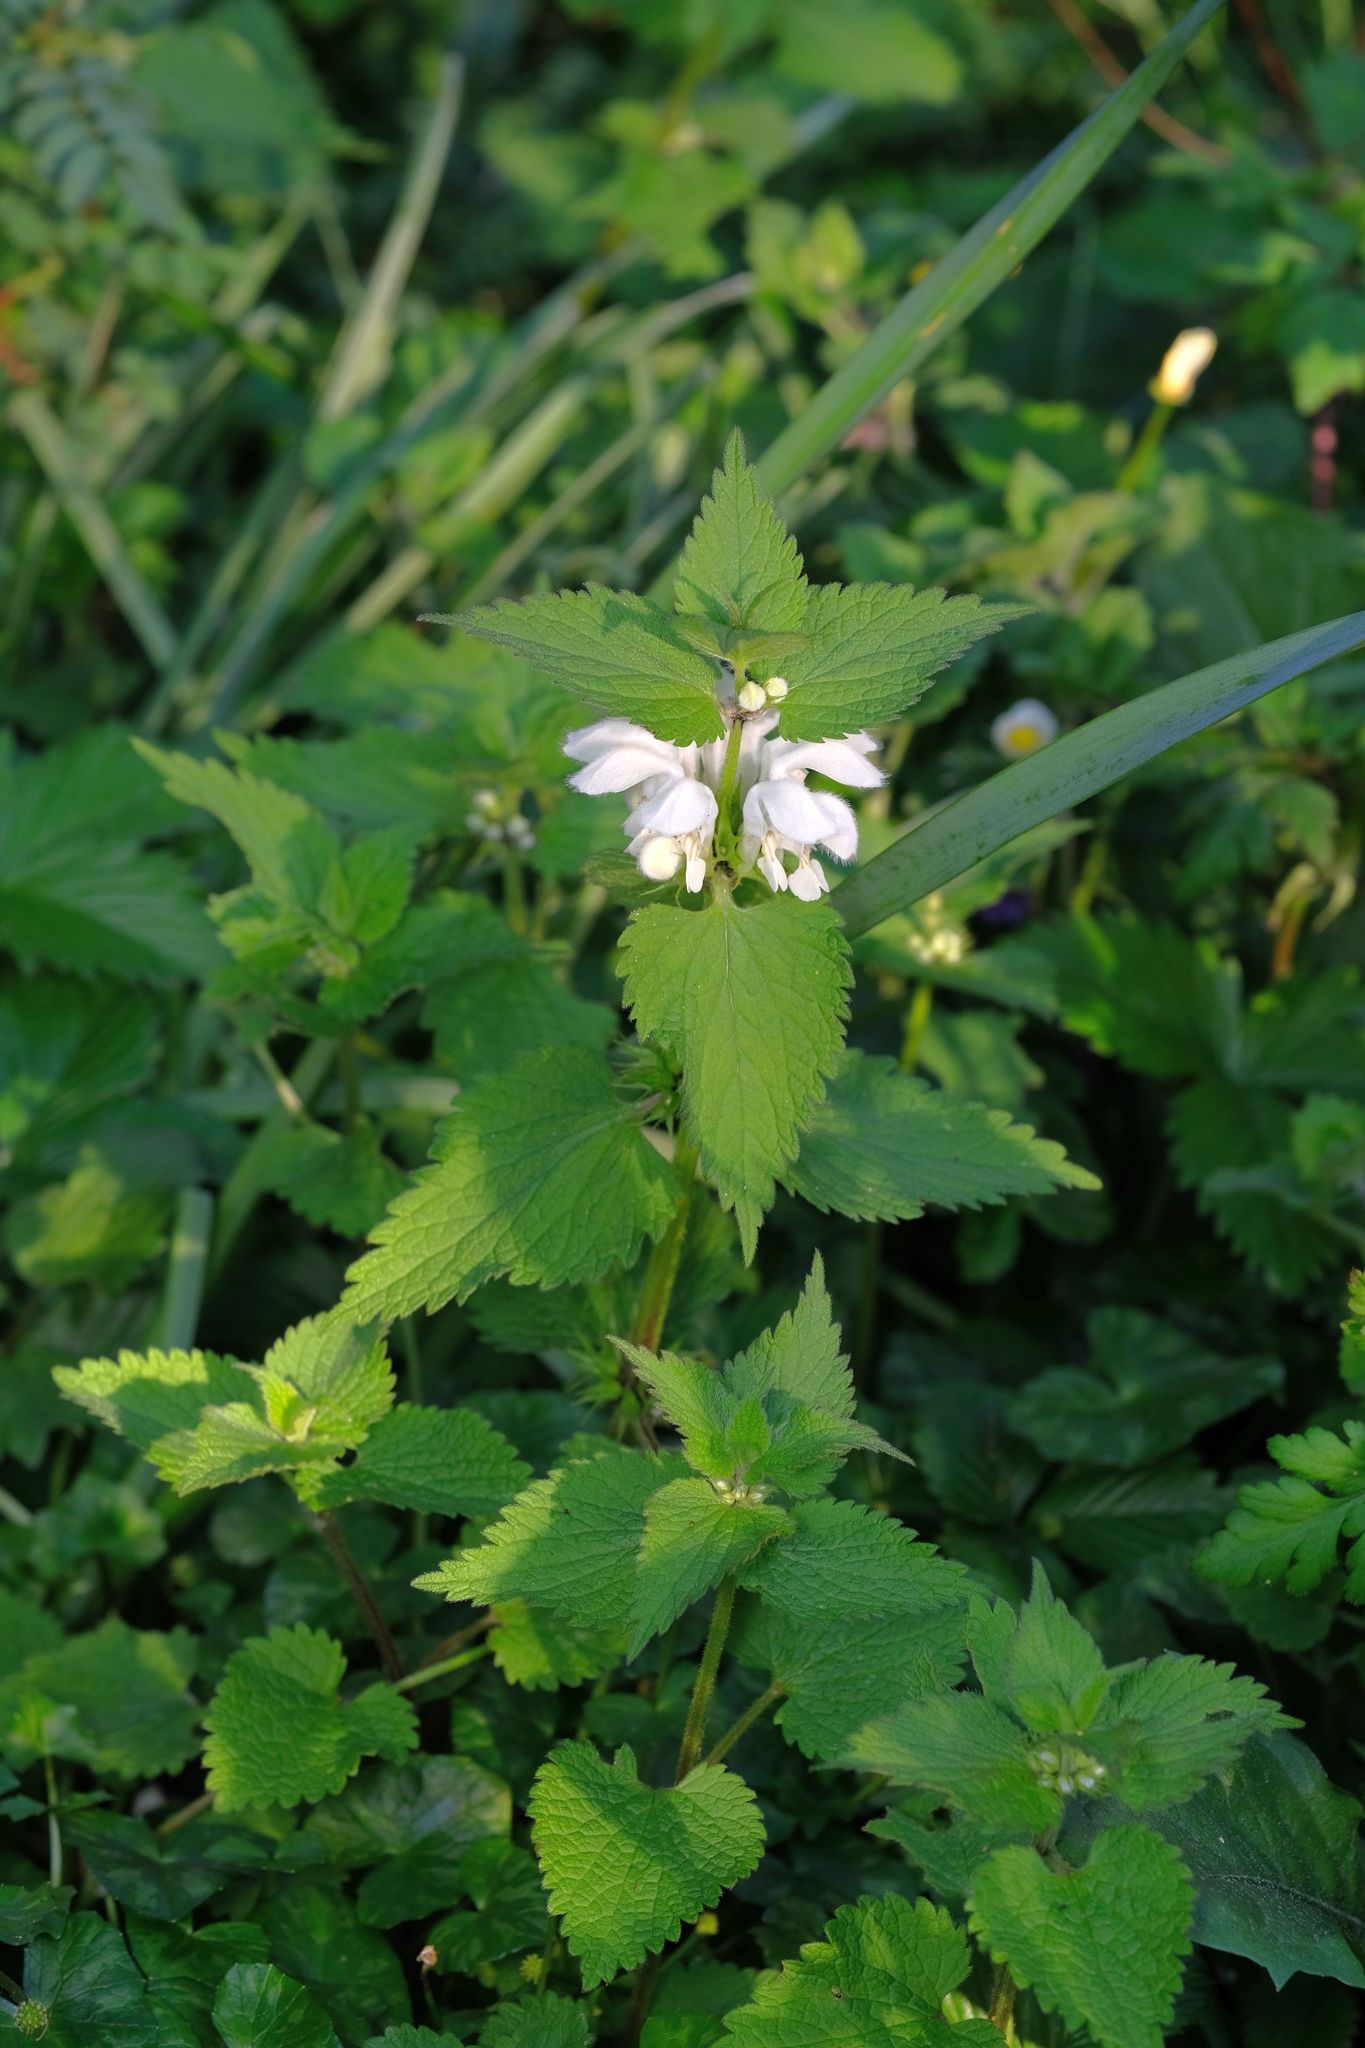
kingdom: Plantae
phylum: Tracheophyta
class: Magnoliopsida
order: Lamiales
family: Lamiaceae
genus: Lamium
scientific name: Lamium album
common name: White dead-nettle
